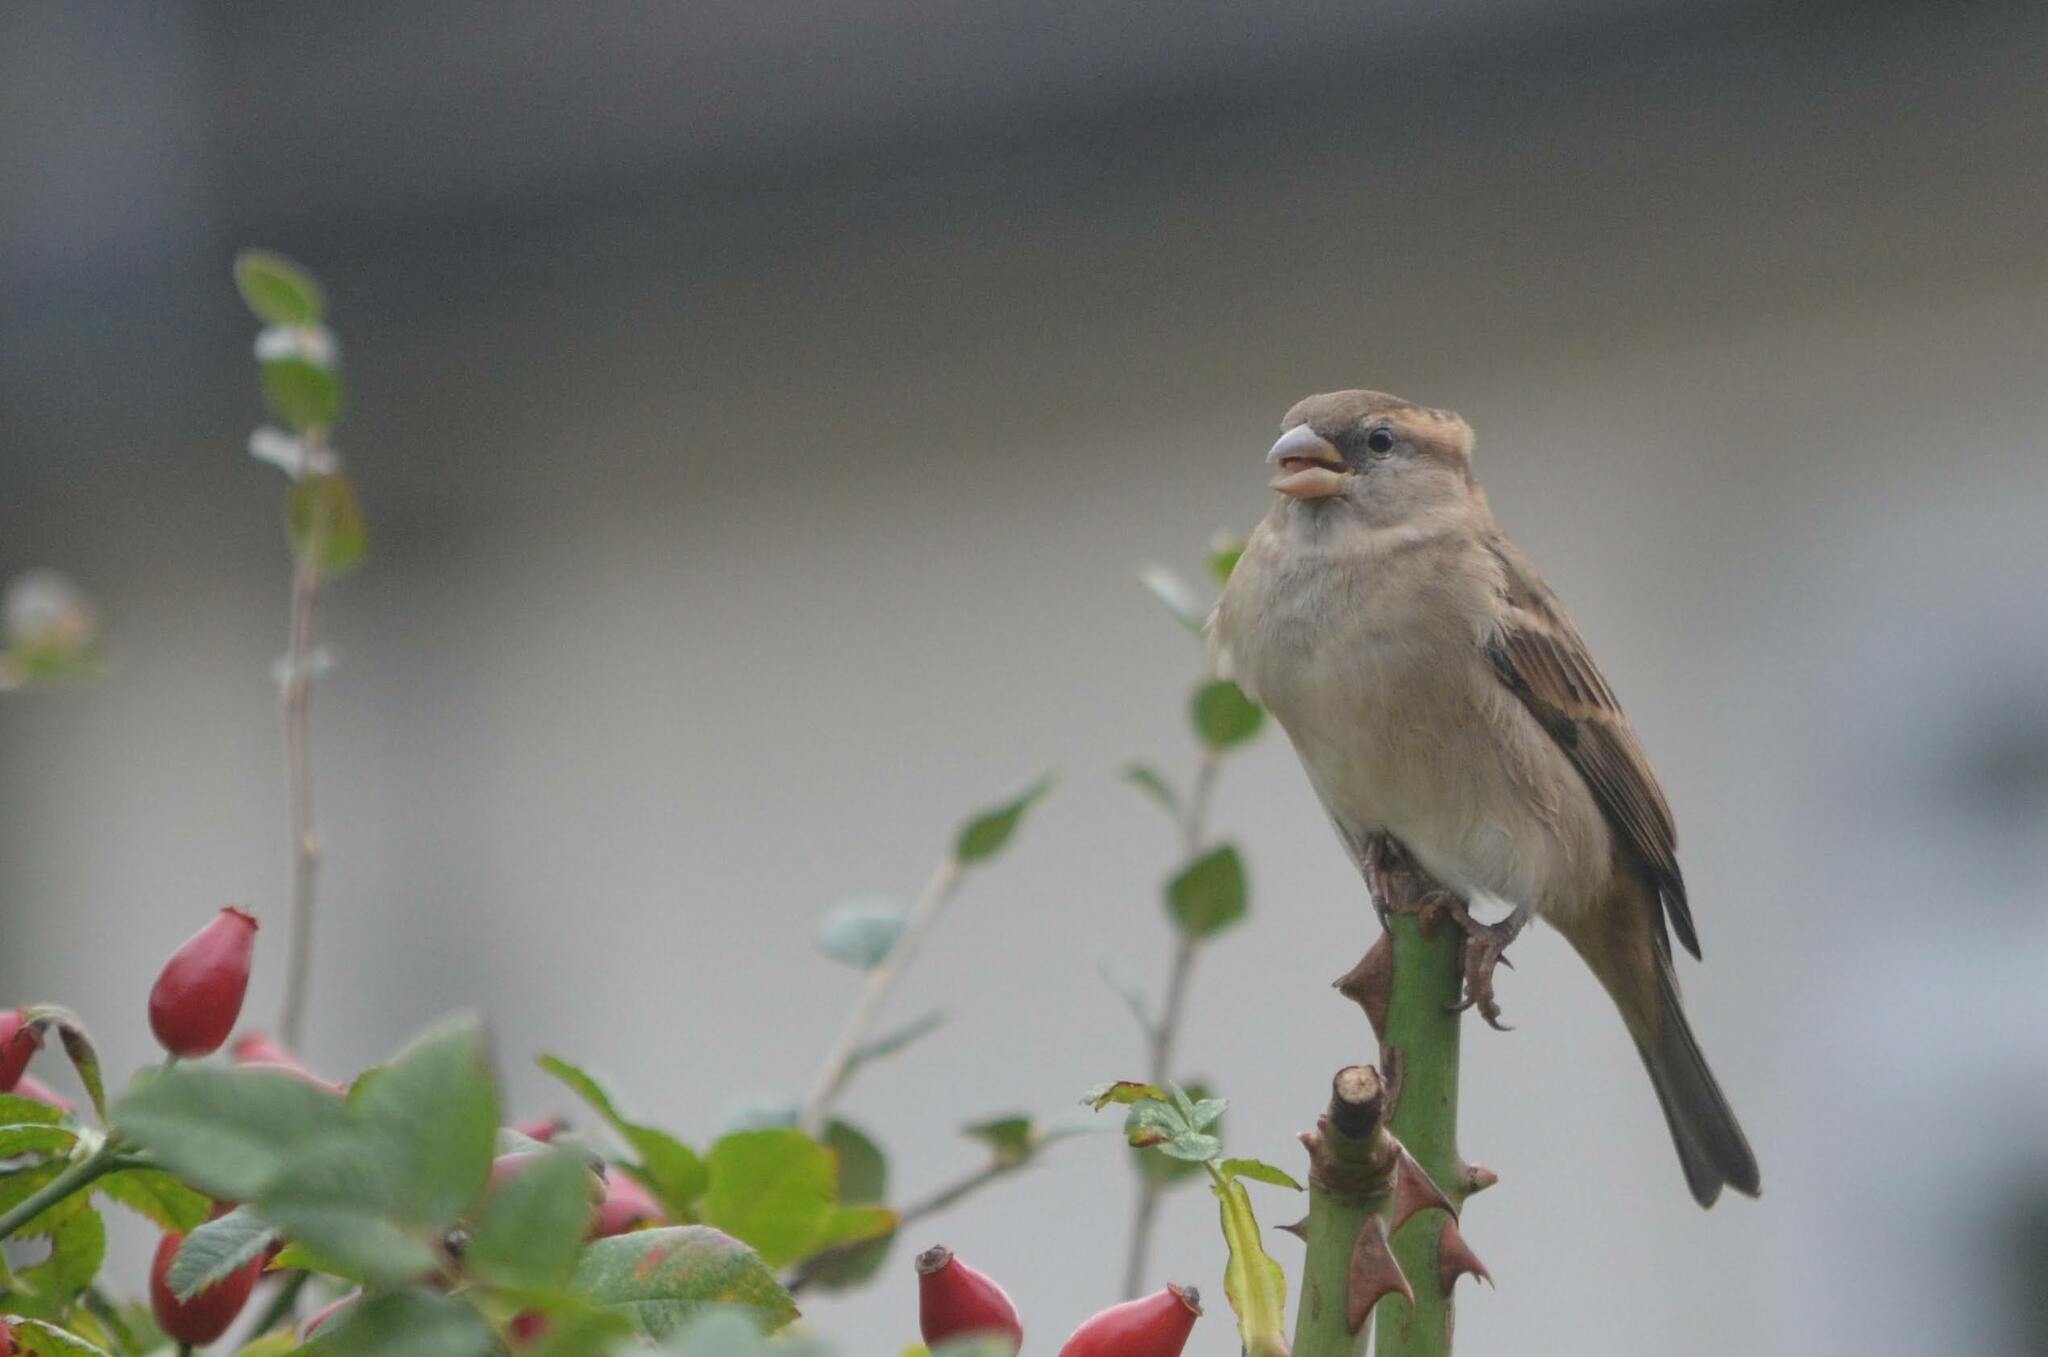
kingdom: Animalia
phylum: Chordata
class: Aves
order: Passeriformes
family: Passeridae
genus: Passer
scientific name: Passer domesticus
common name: House sparrow
